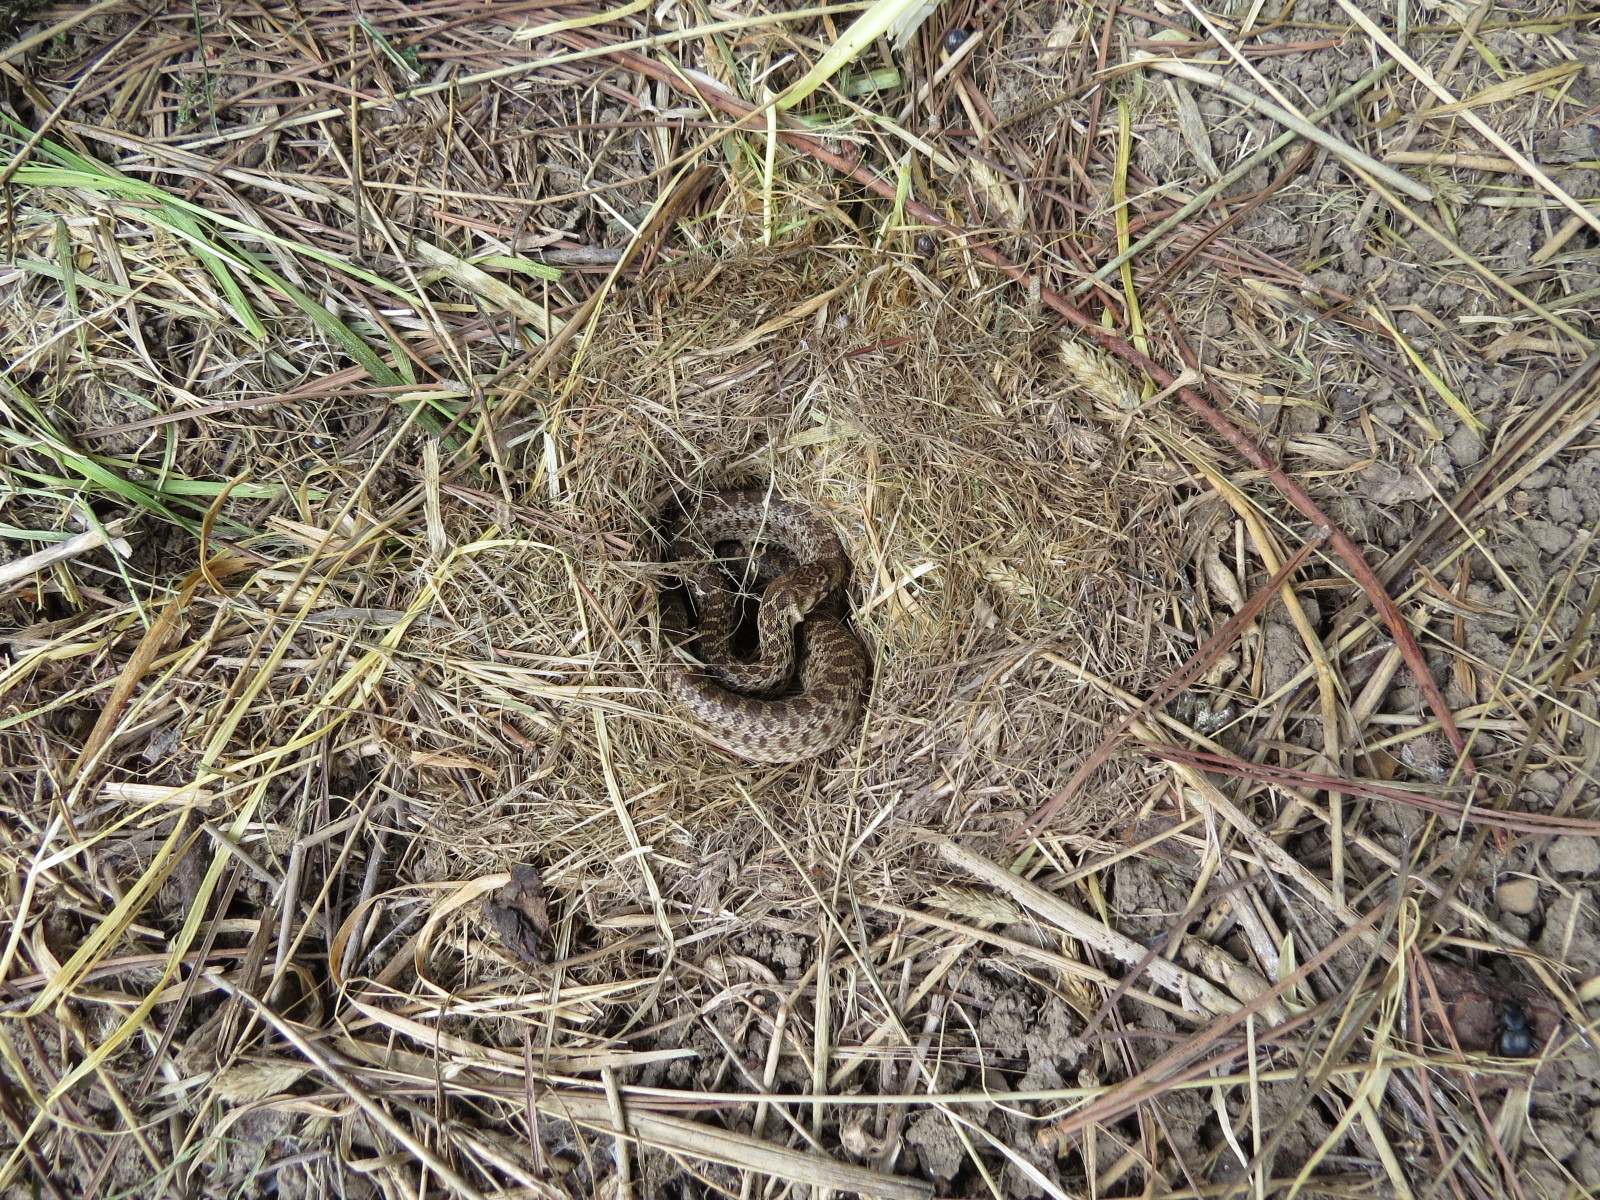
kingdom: Animalia
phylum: Chordata
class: Squamata
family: Colubridae
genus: Pituophis
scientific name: Pituophis catenifer
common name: Gopher snake
